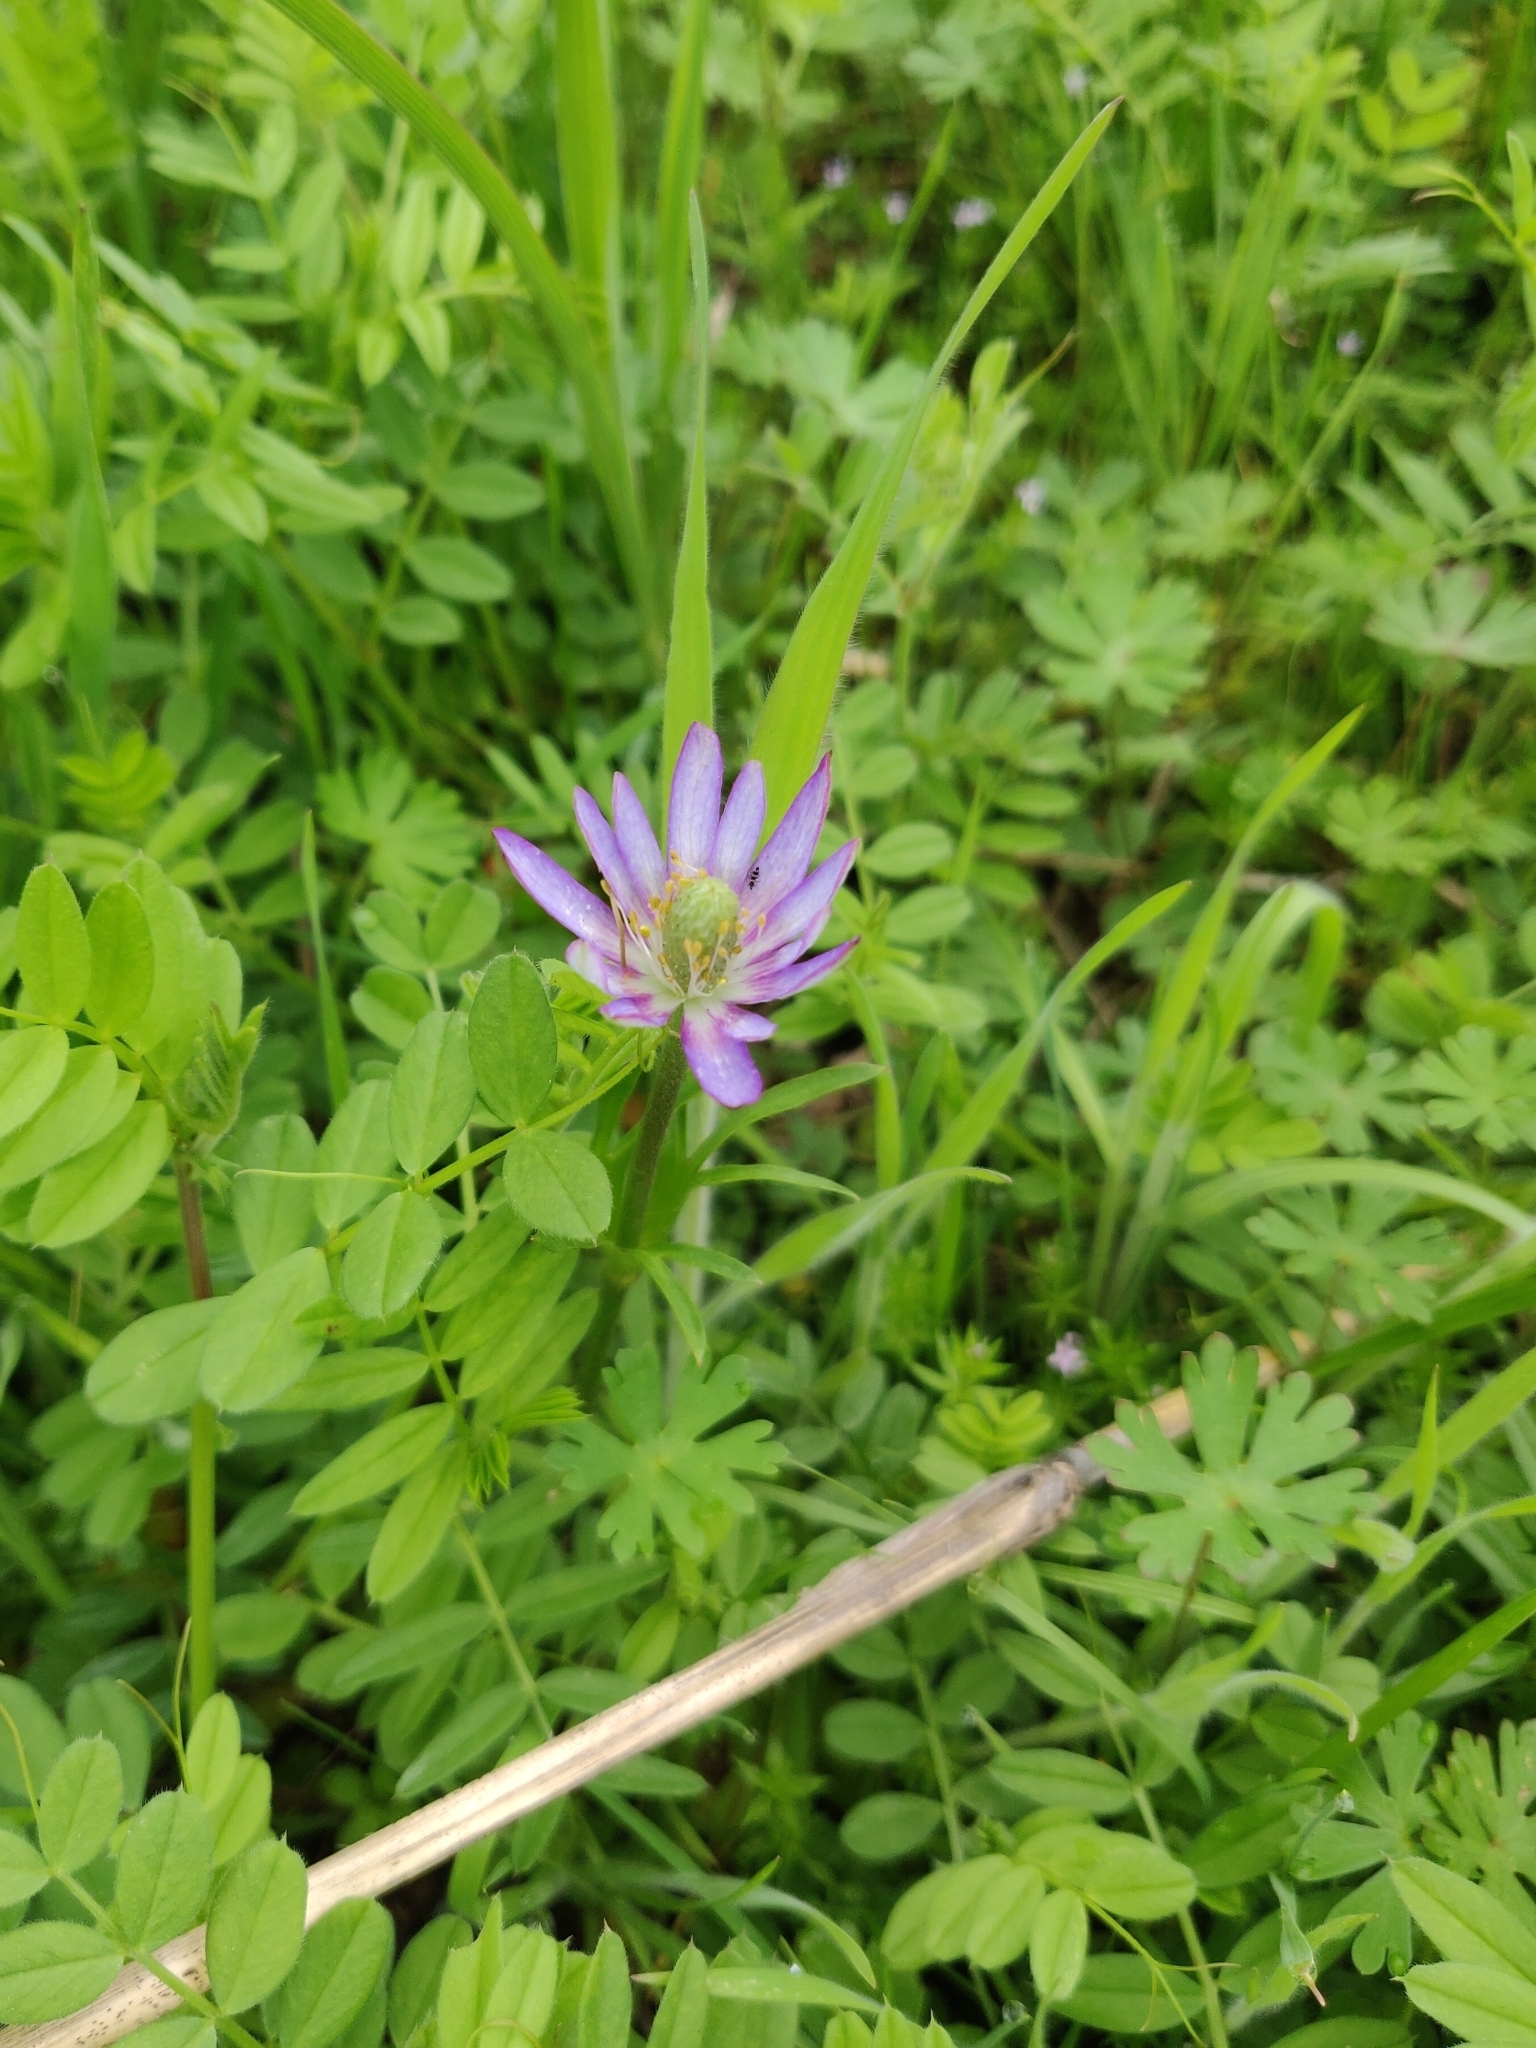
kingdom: Plantae
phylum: Tracheophyta
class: Magnoliopsida
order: Ranunculales
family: Ranunculaceae
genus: Anemone
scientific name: Anemone berlandieri
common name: Ten-petal anemone
